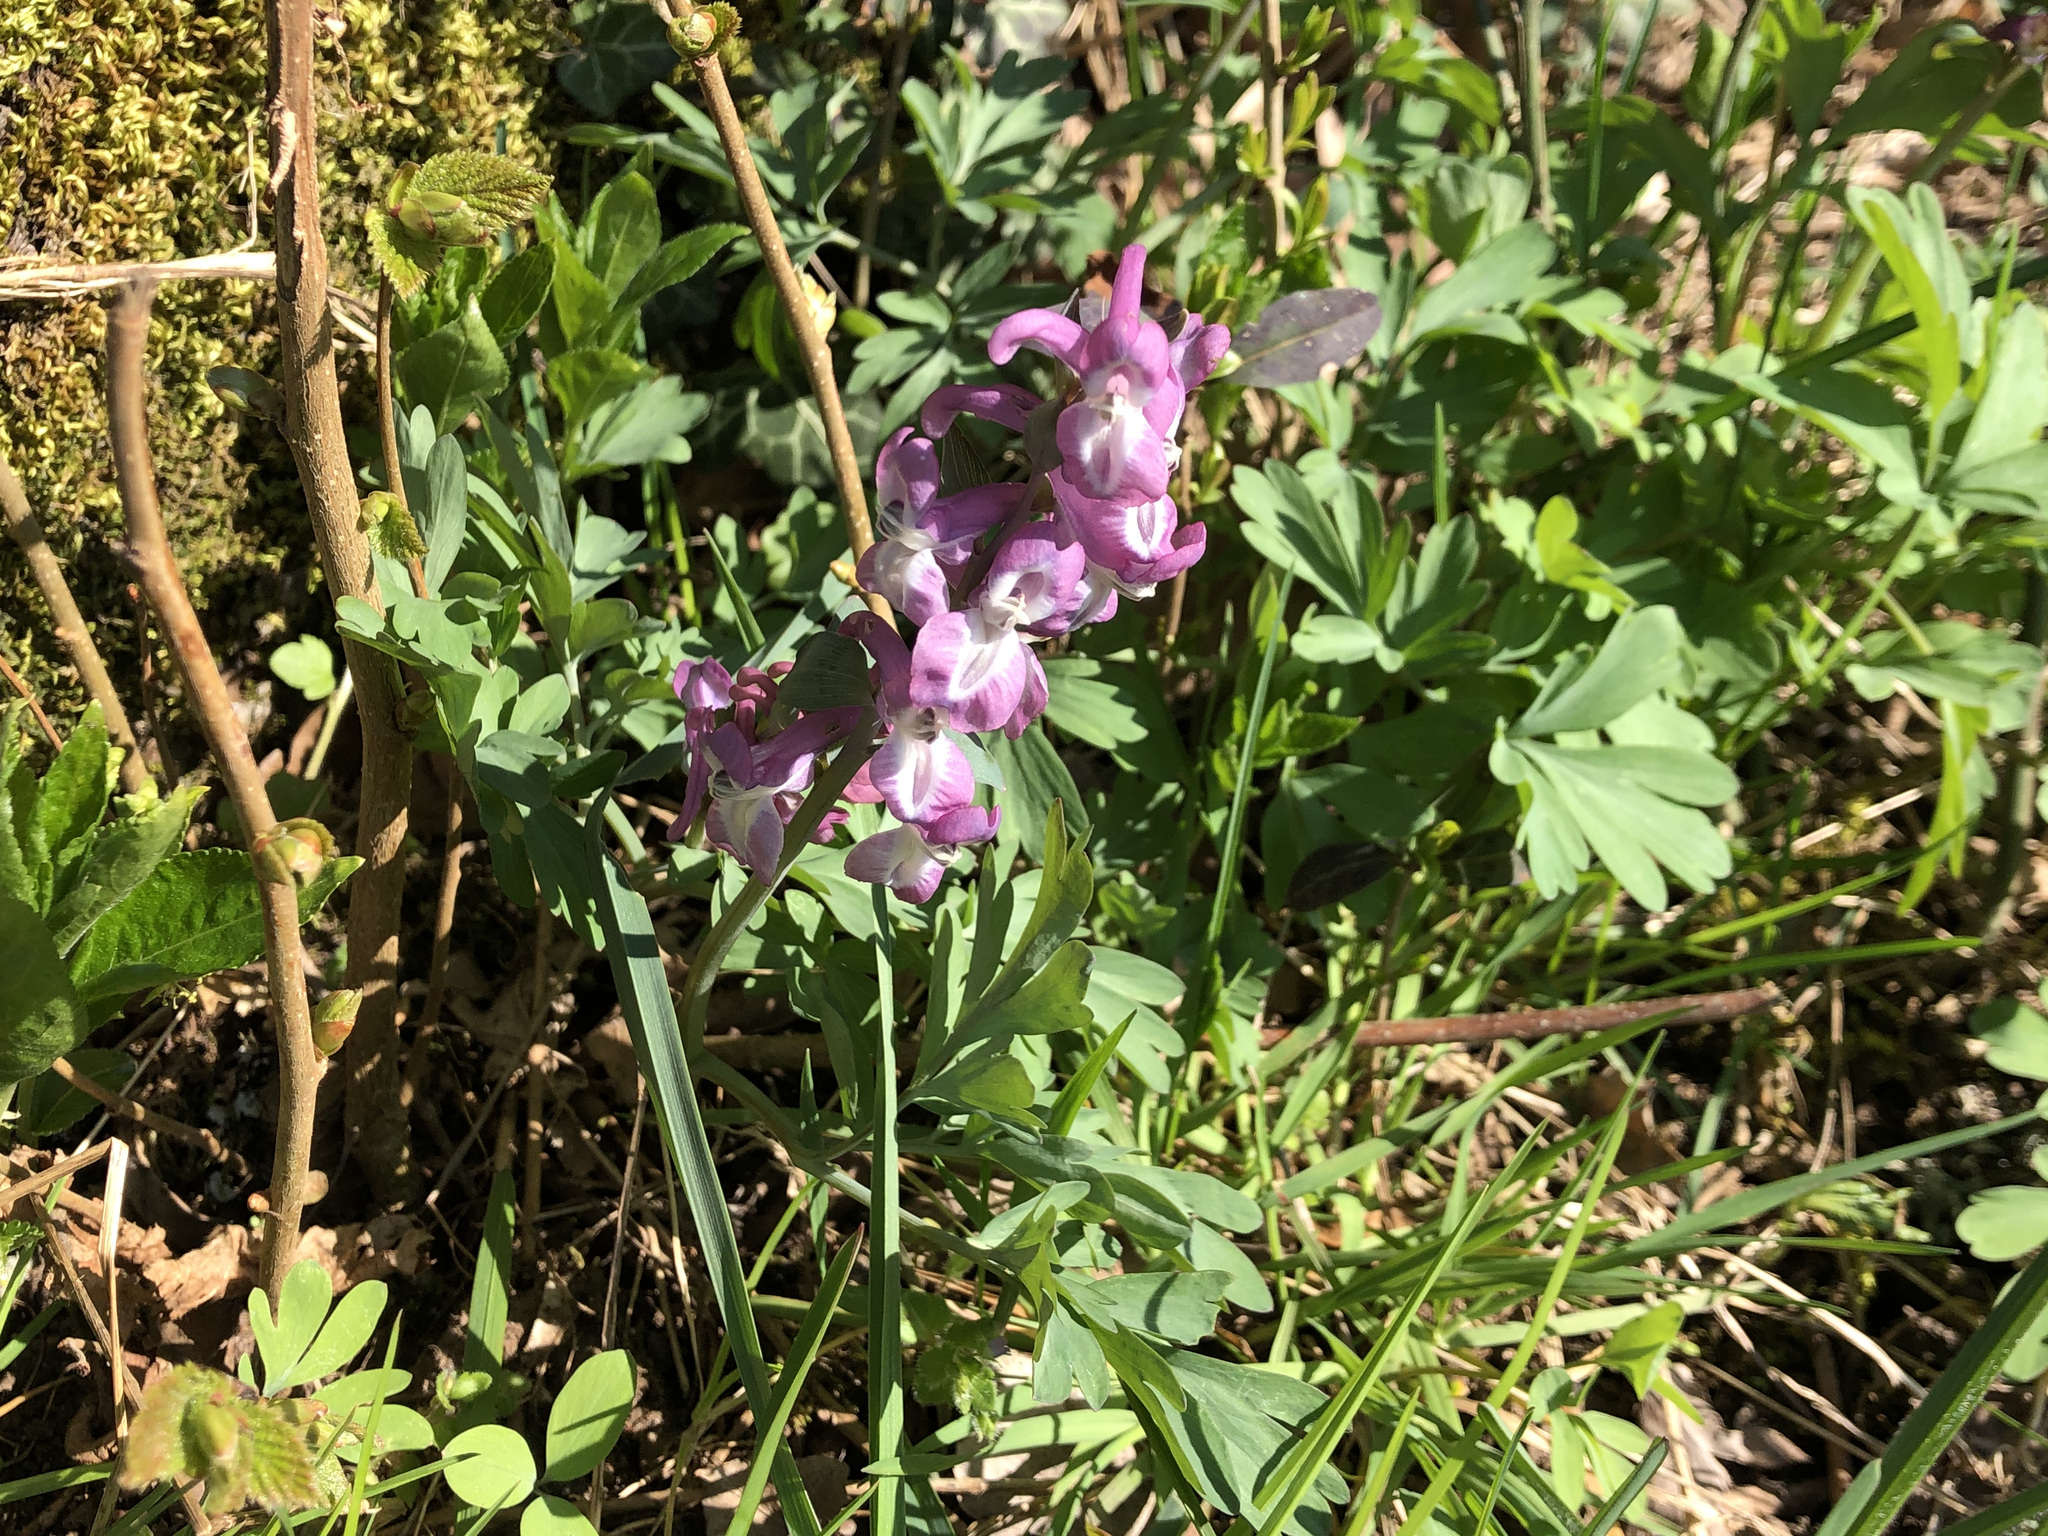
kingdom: Plantae
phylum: Tracheophyta
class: Magnoliopsida
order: Ranunculales
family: Papaveraceae
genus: Corydalis
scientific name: Corydalis cava
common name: Hollowroot
